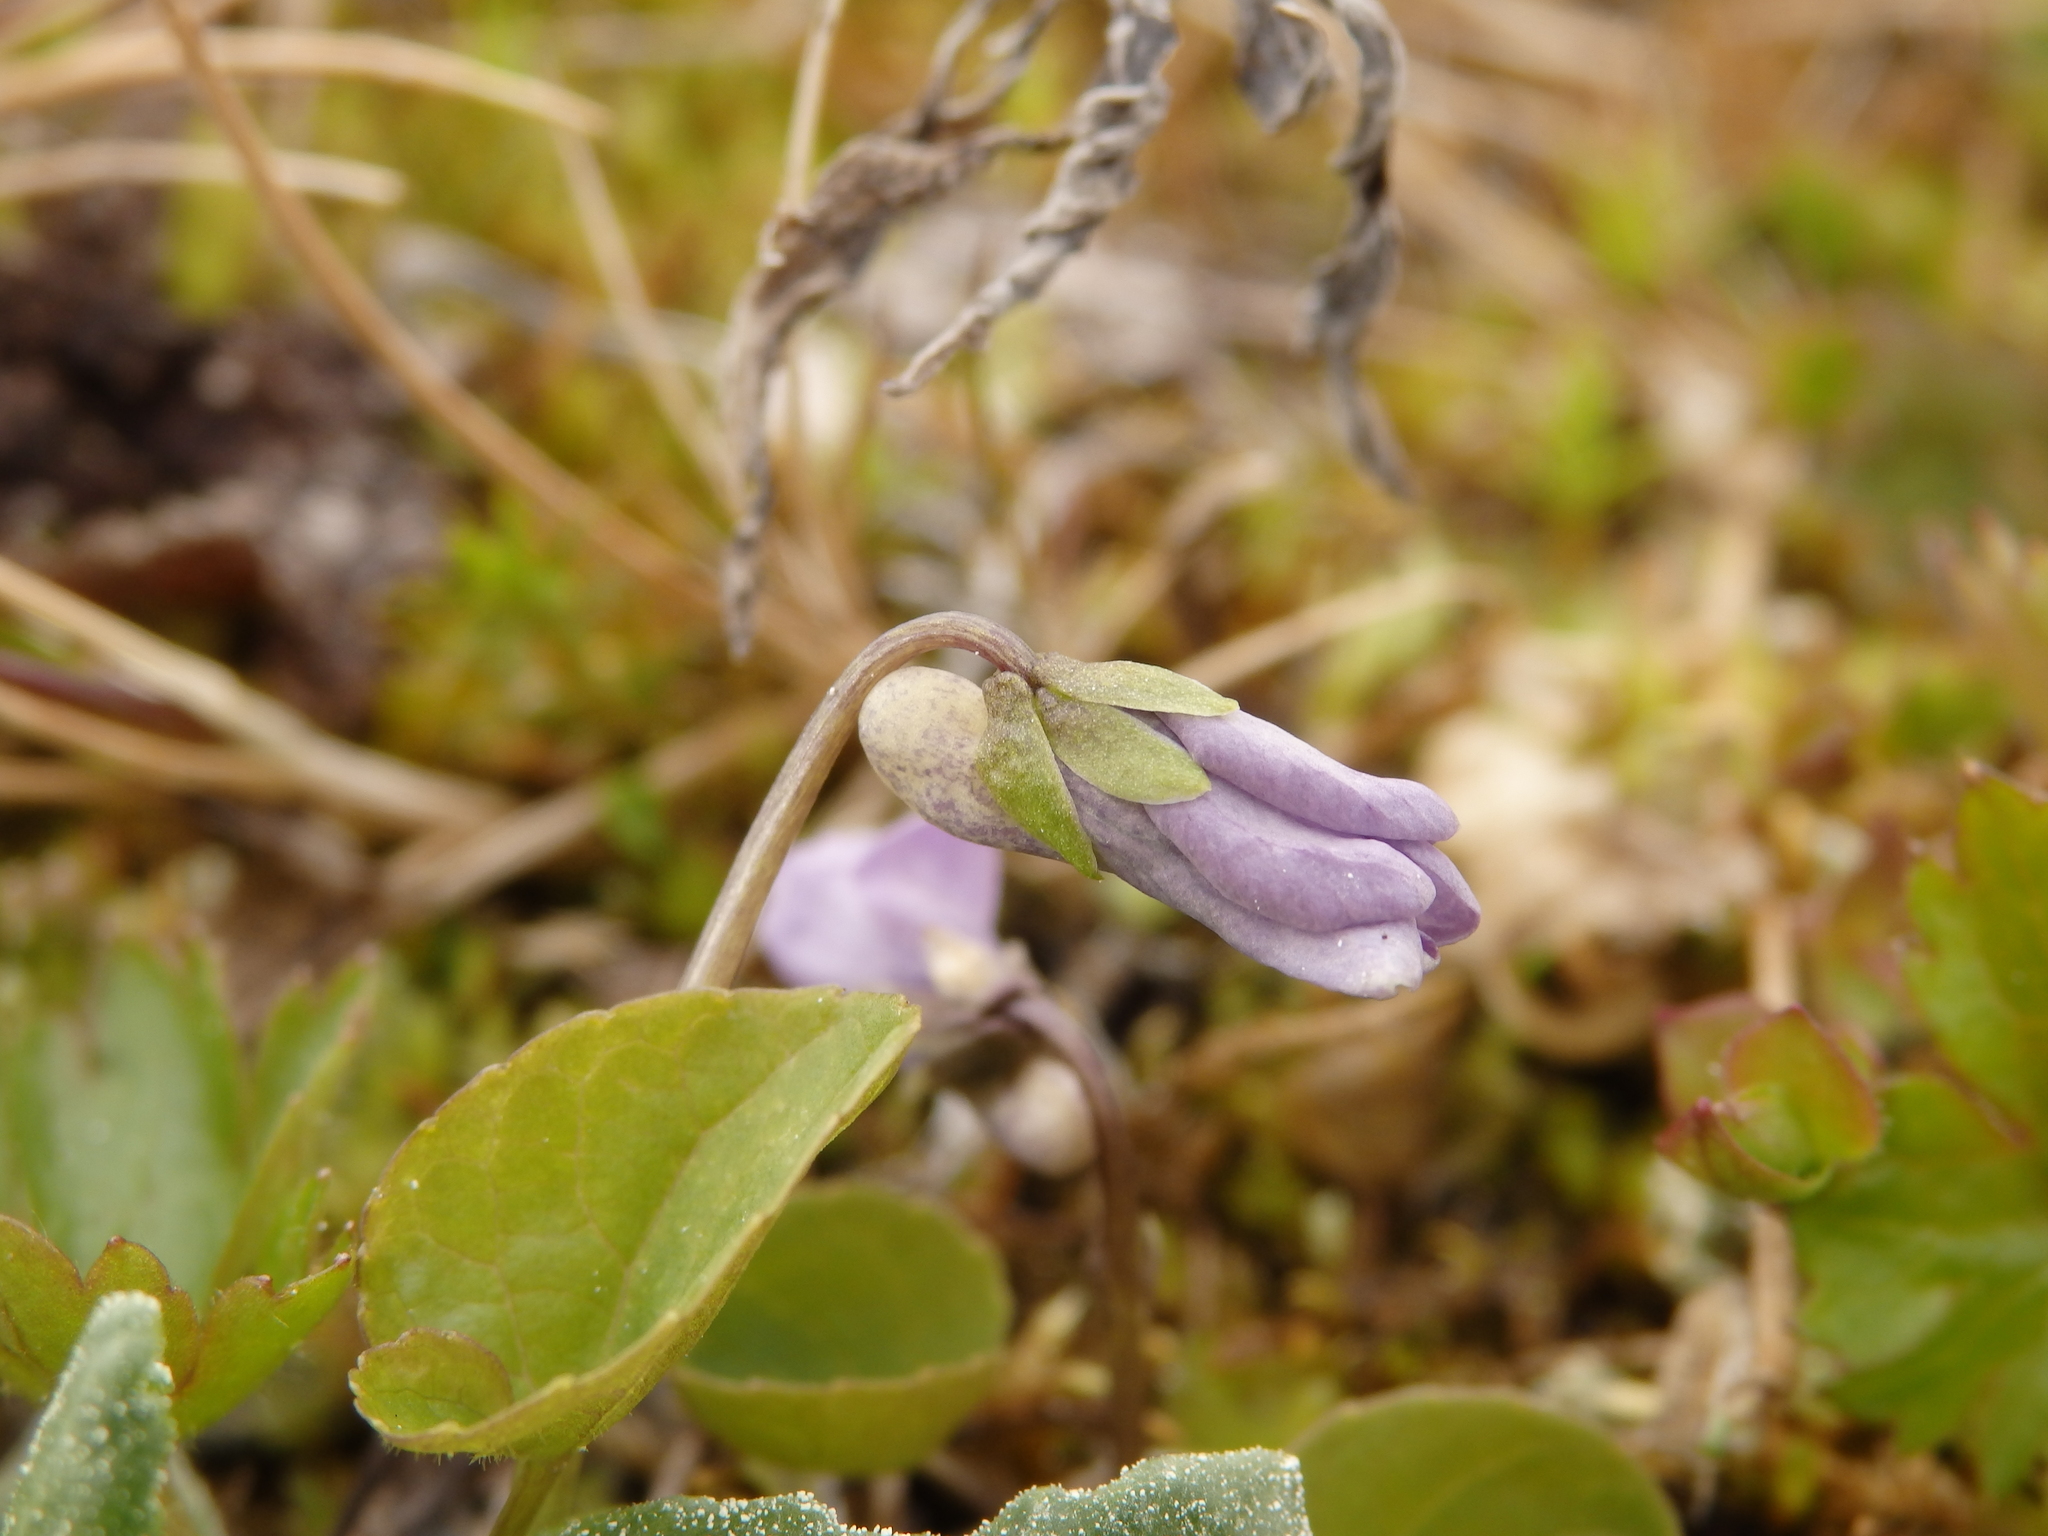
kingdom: Plantae
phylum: Tracheophyta
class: Magnoliopsida
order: Malpighiales
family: Violaceae
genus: Viola
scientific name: Viola epipsila
